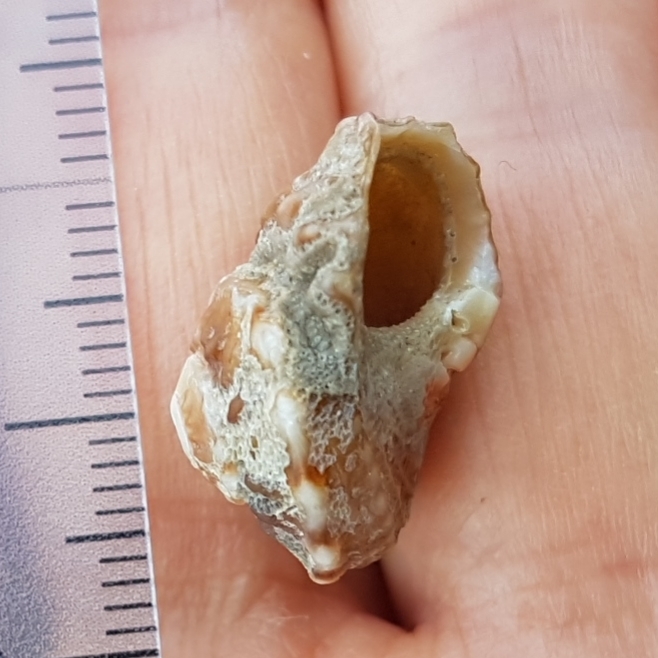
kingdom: Animalia
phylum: Mollusca
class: Gastropoda
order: Trochida
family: Turbinidae
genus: Bolma
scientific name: Bolma rugosa
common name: Rough star shell
